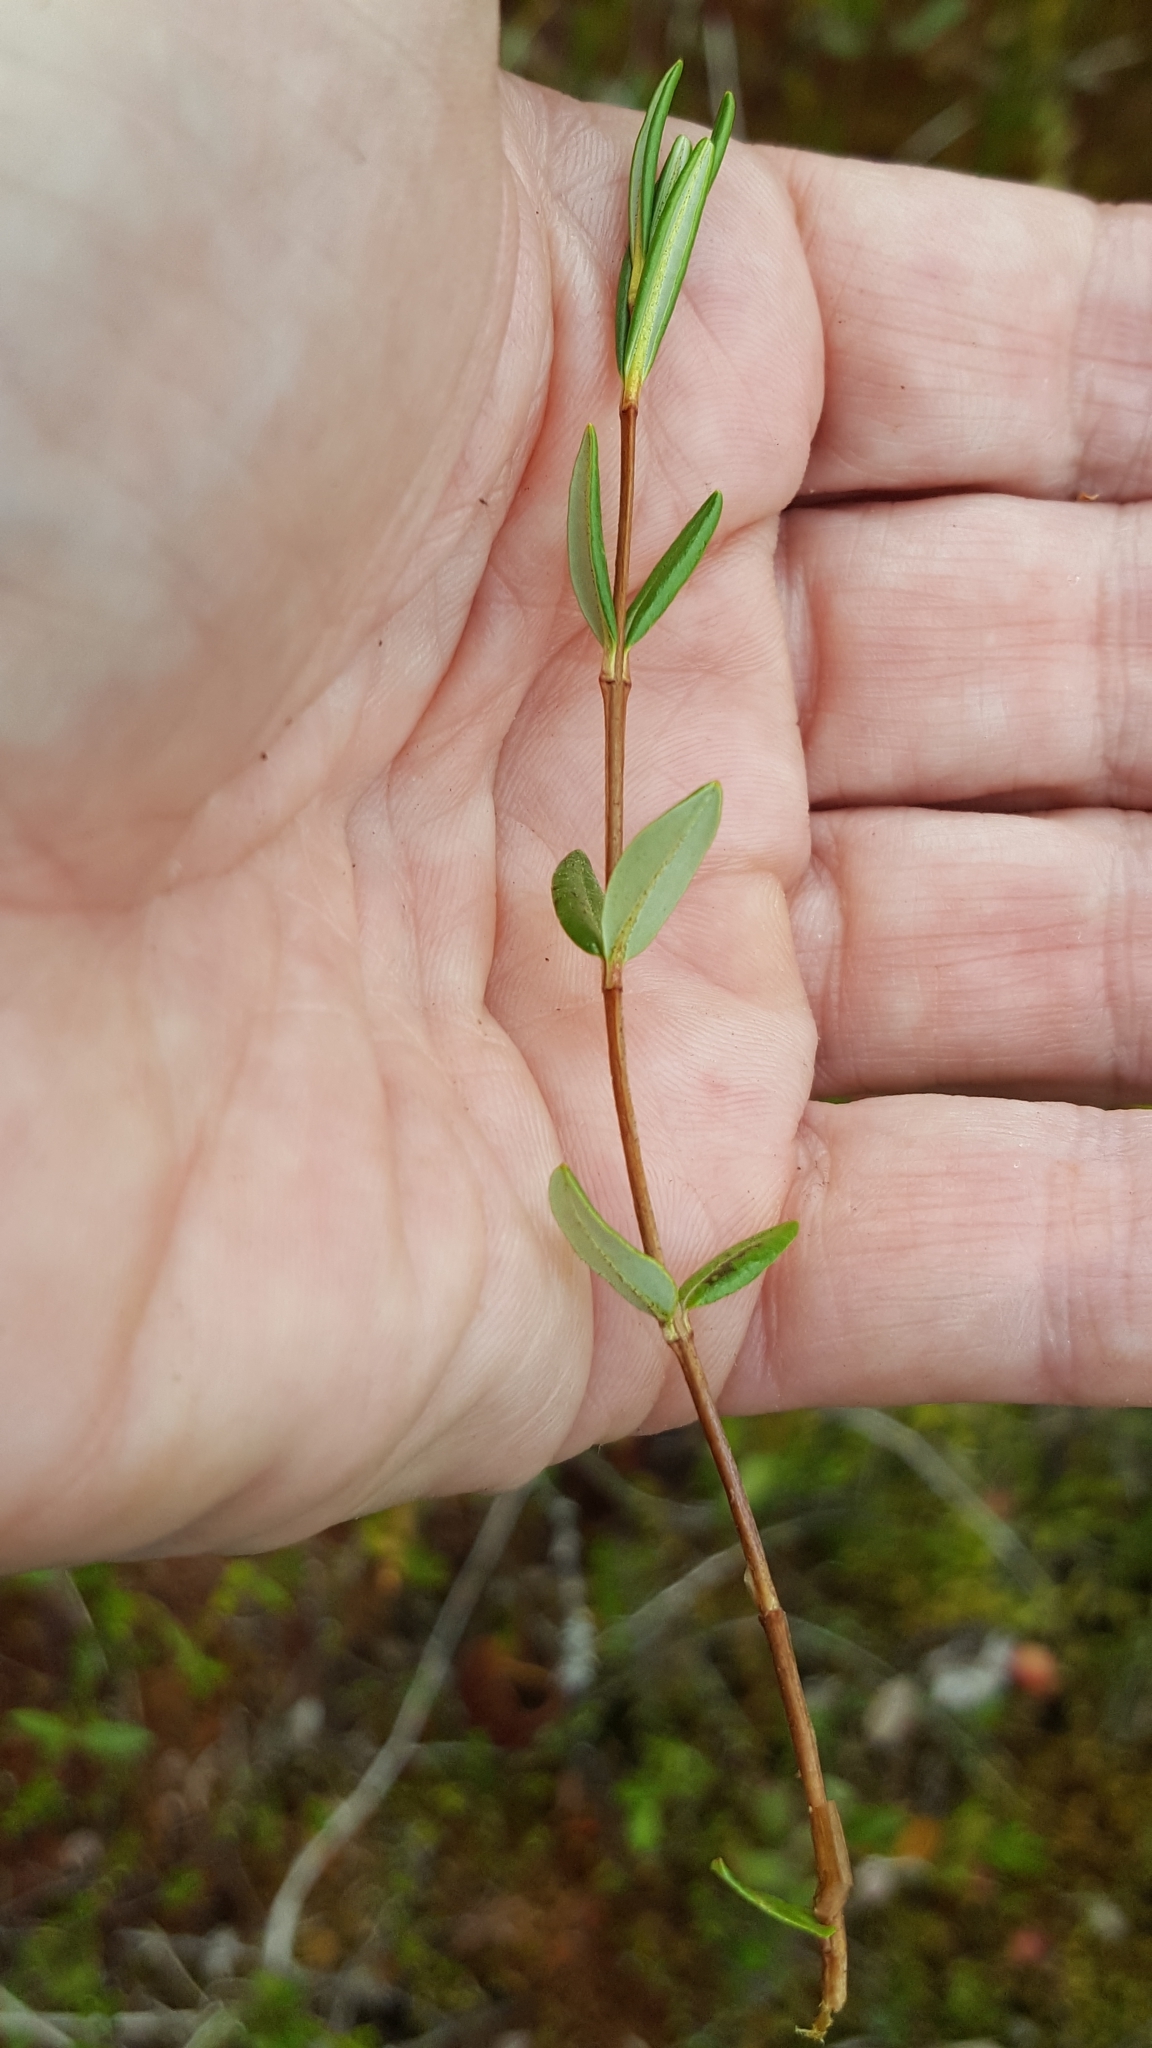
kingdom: Plantae
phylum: Tracheophyta
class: Magnoliopsida
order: Ericales
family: Ericaceae
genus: Vaccinium
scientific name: Vaccinium oxycoccos
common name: Cranberry
